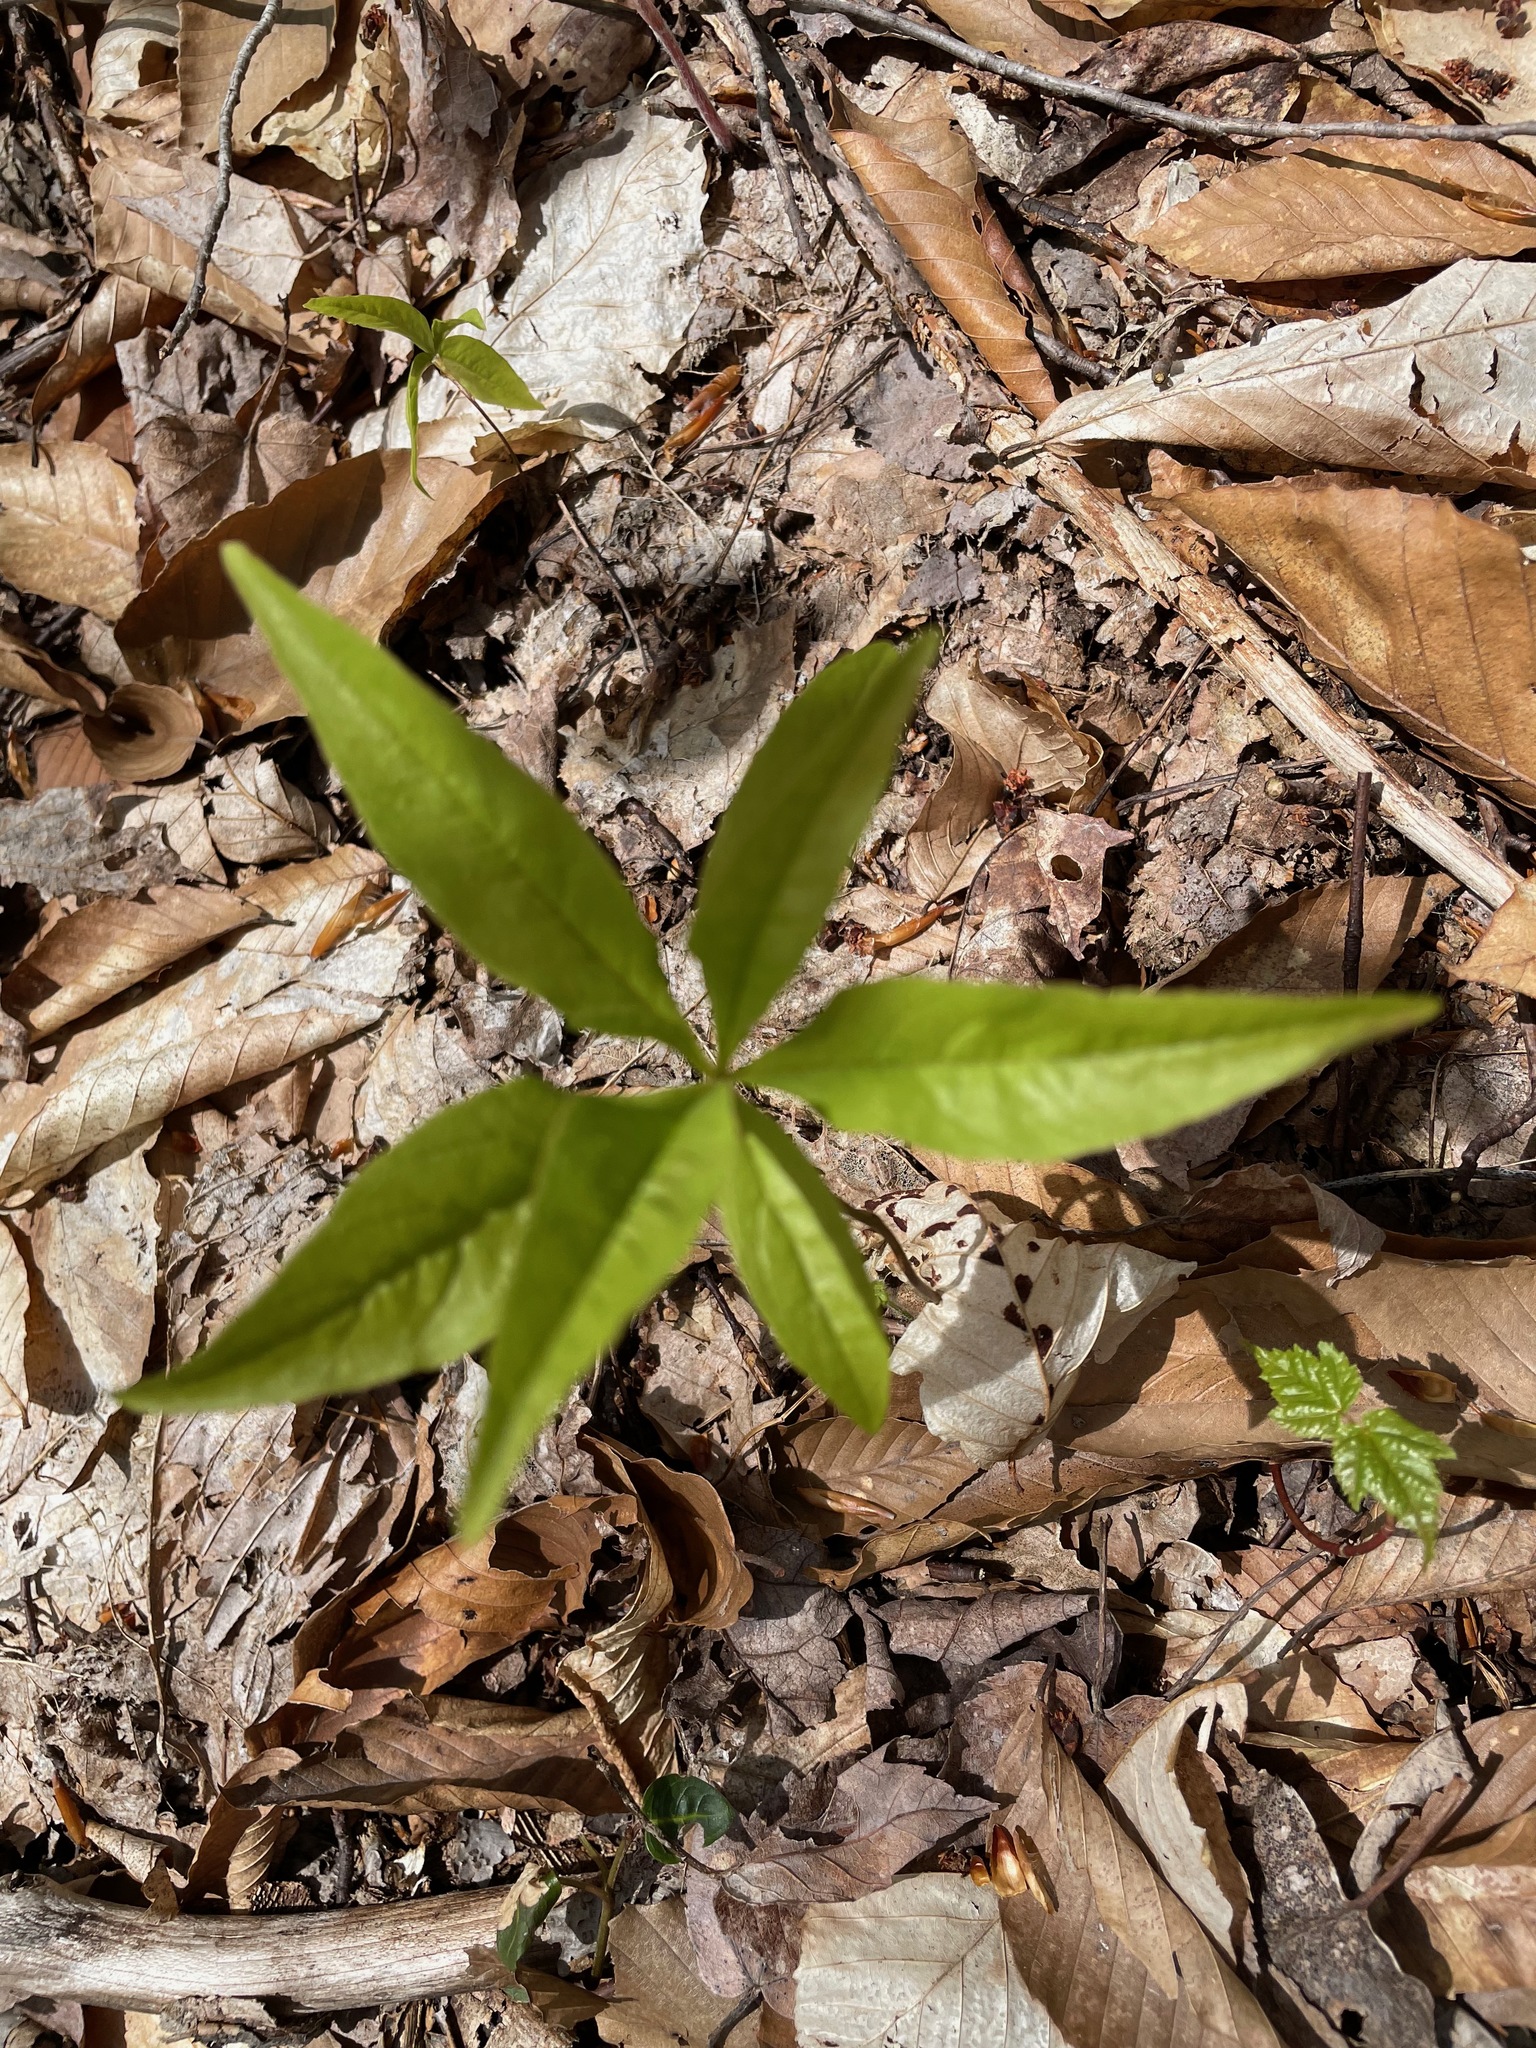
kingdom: Plantae
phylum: Tracheophyta
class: Magnoliopsida
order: Ericales
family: Primulaceae
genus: Lysimachia
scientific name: Lysimachia borealis
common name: American starflower
